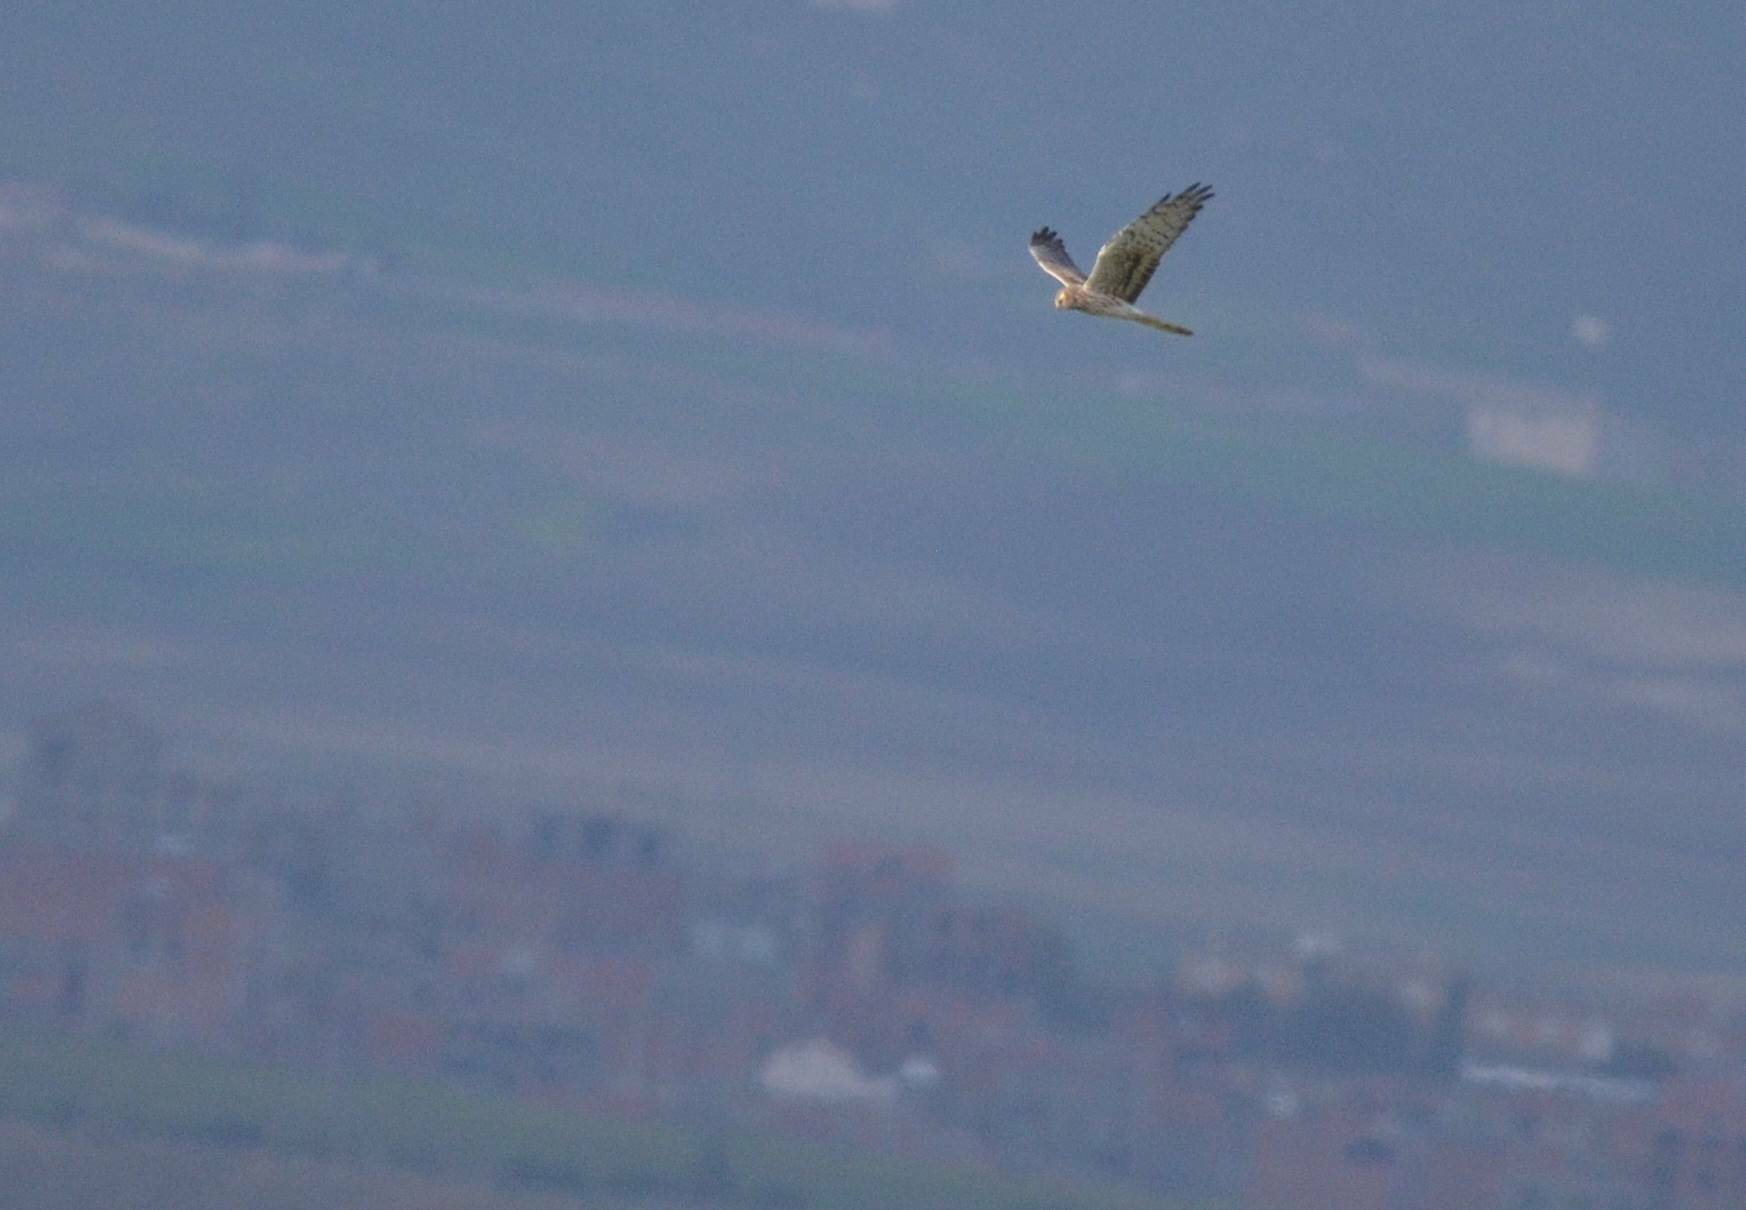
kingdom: Animalia
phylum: Chordata
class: Aves
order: Accipitriformes
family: Accipitridae
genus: Circus
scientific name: Circus pygargus
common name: Montagu's harrier
